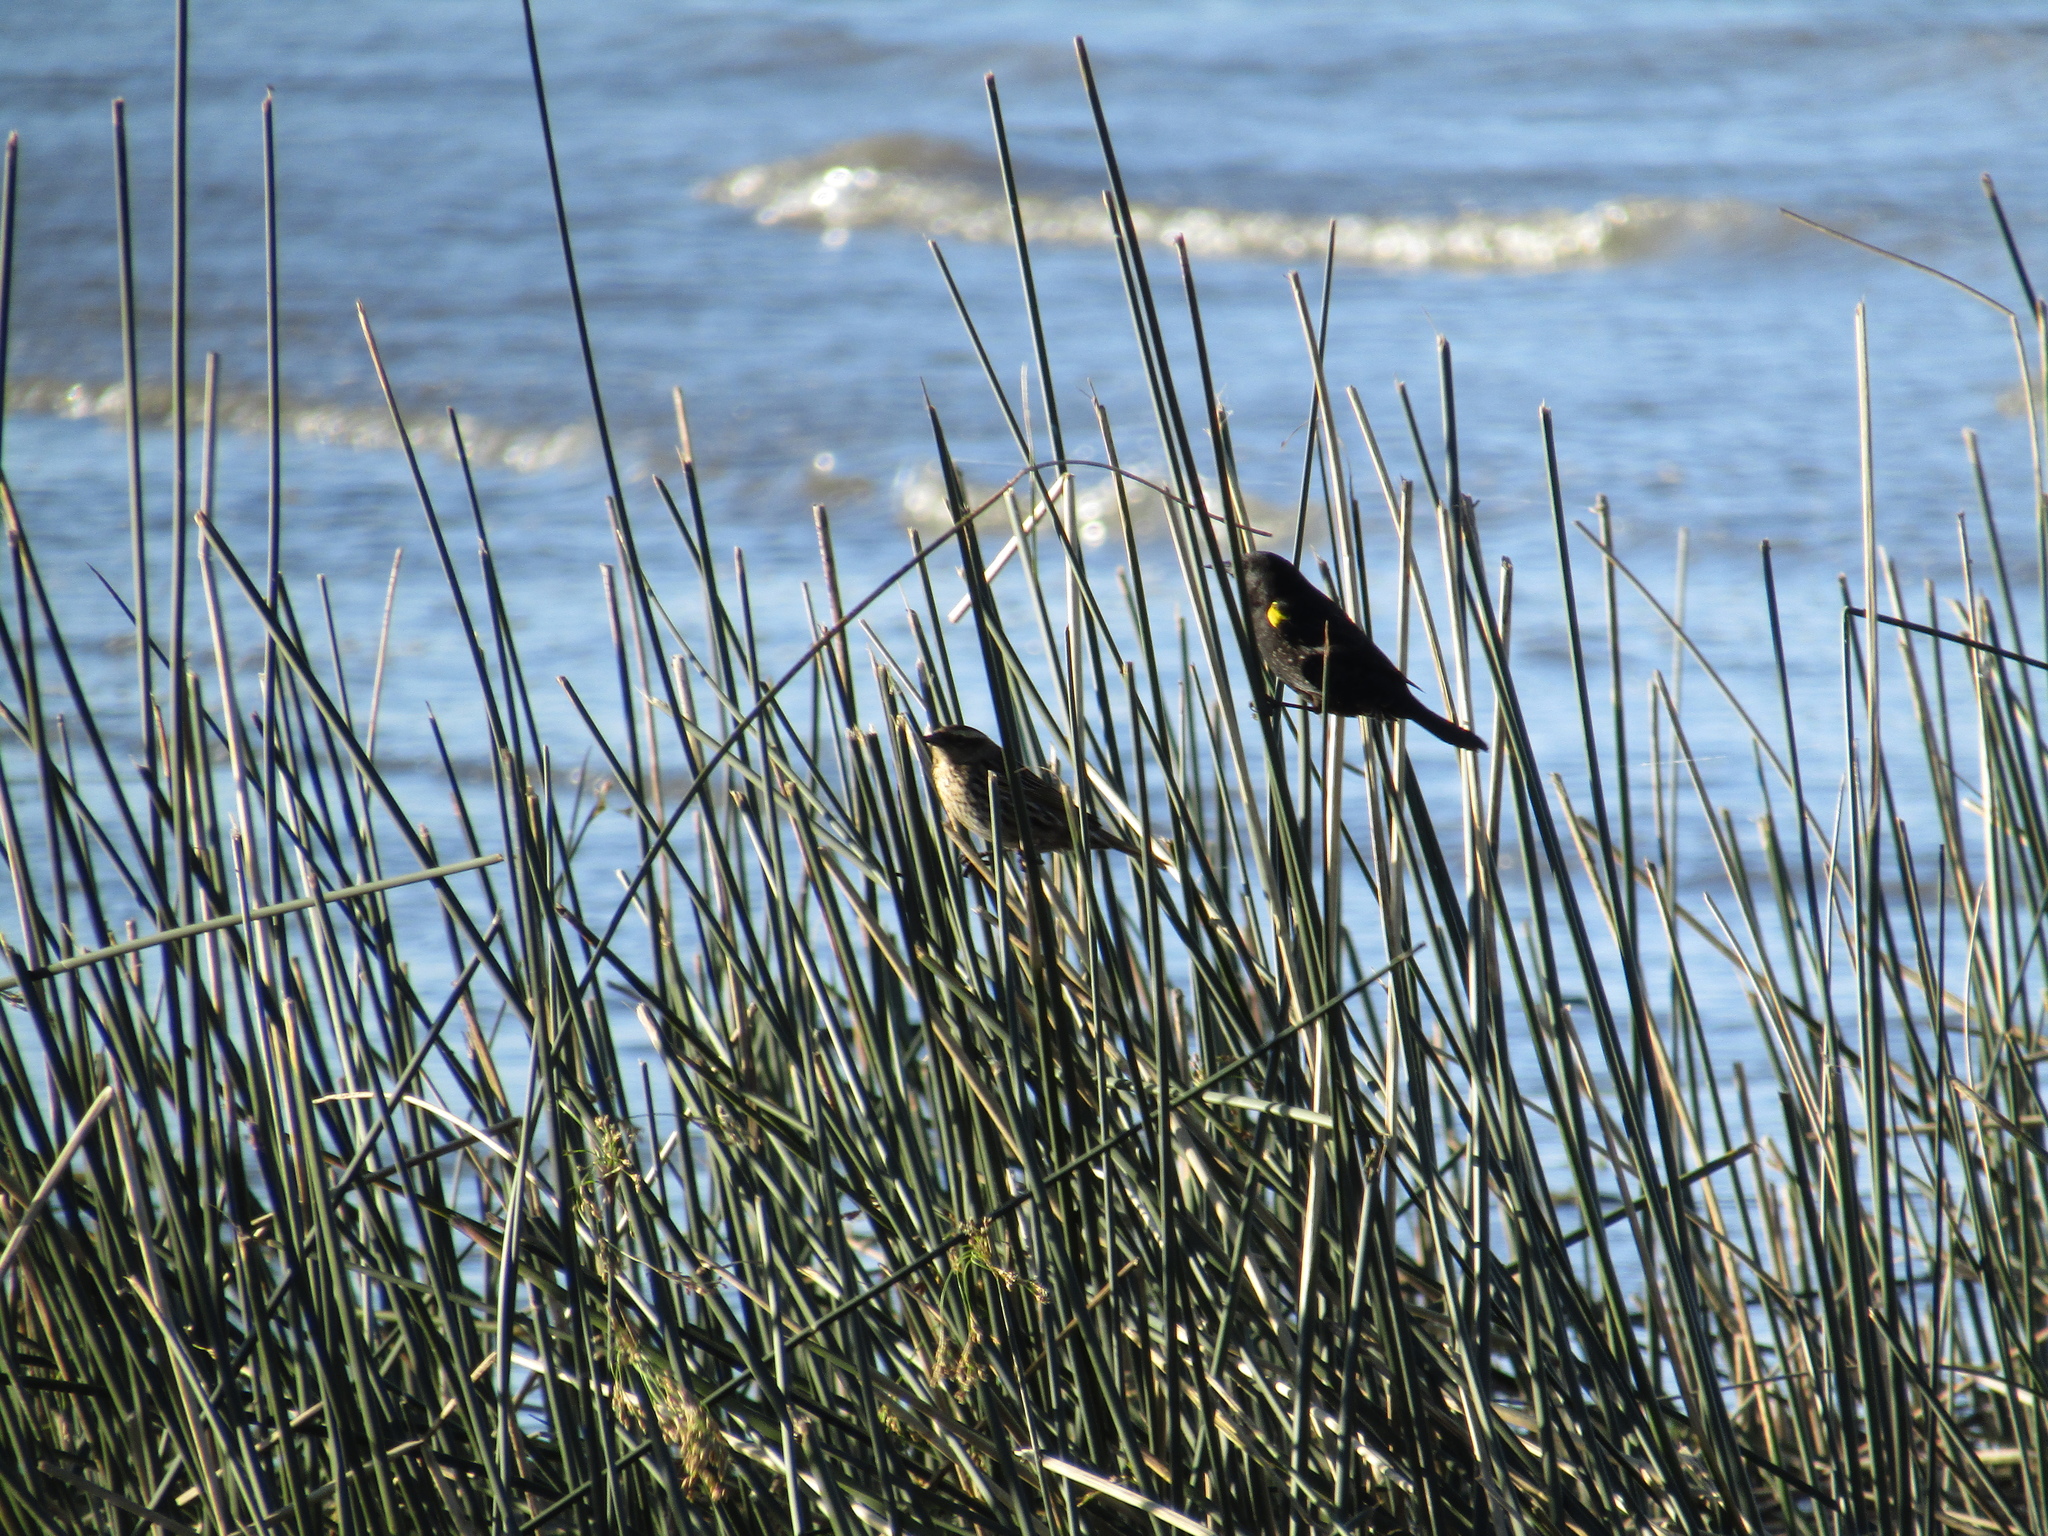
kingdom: Animalia
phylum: Chordata
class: Aves
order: Passeriformes
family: Icteridae
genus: Agelasticus
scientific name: Agelasticus thilius
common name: Yellow-winged blackbird
